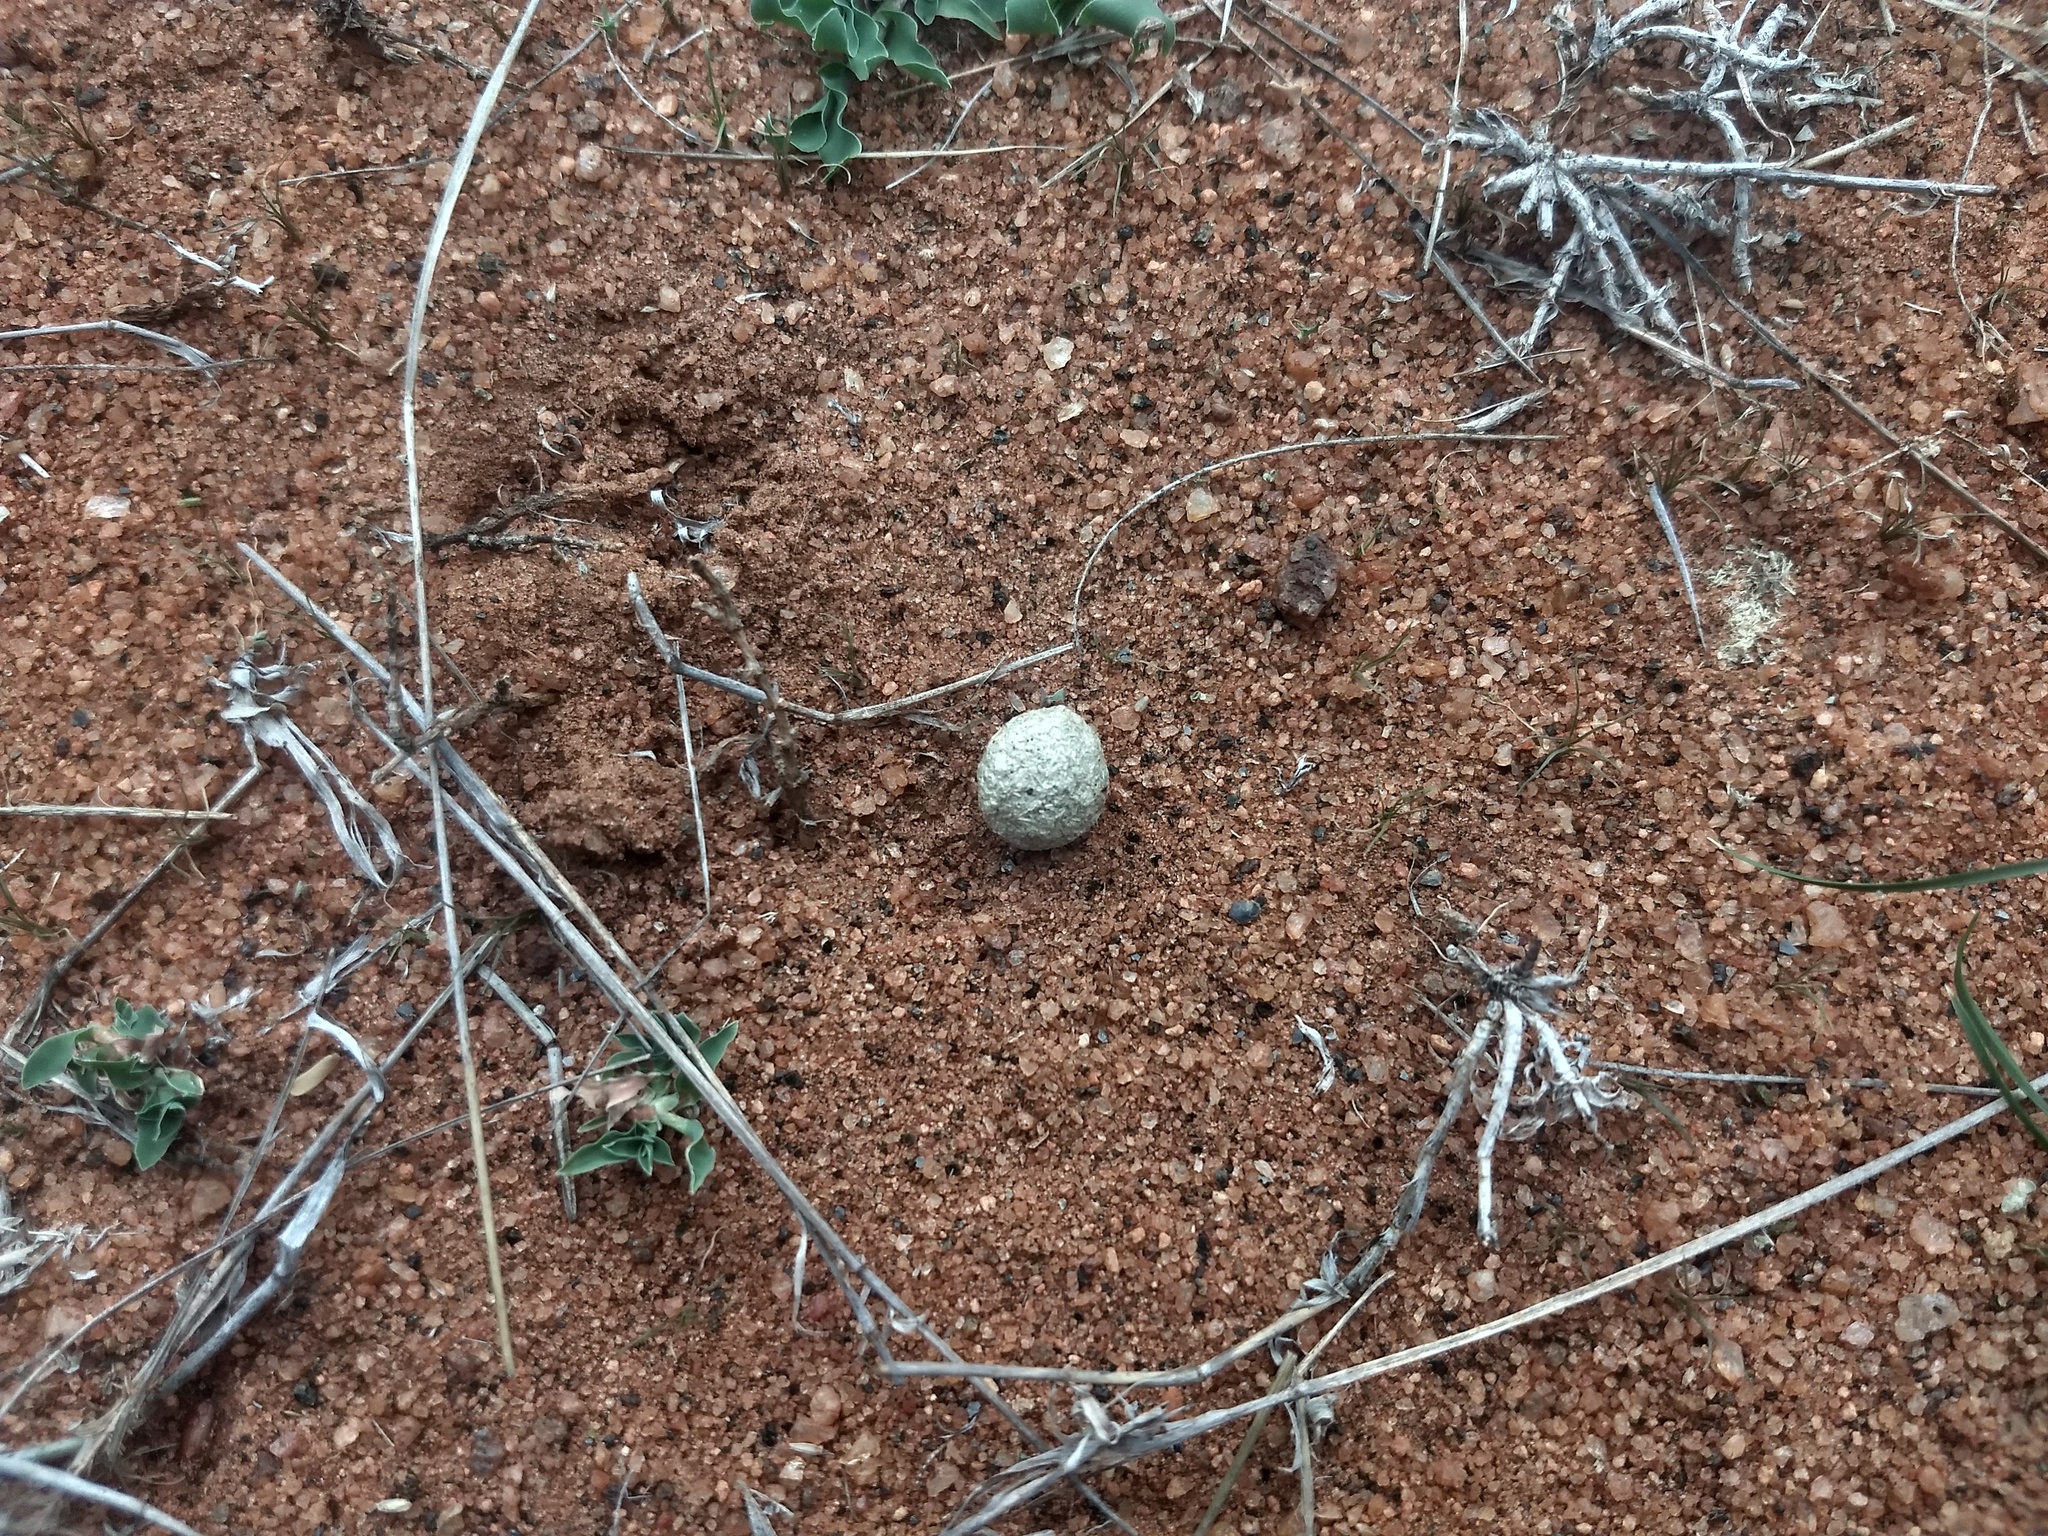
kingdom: Animalia
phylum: Chordata
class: Mammalia
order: Lagomorpha
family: Leporidae
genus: Lepus
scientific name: Lepus nigricollis
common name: Indian hare
